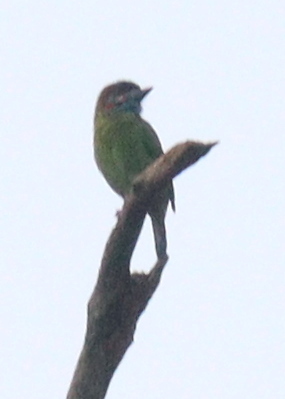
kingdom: Animalia
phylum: Chordata
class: Aves
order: Piciformes
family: Megalaimidae
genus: Psilopogon
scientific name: Psilopogon duvaucelii
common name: Blue-eared barbet
